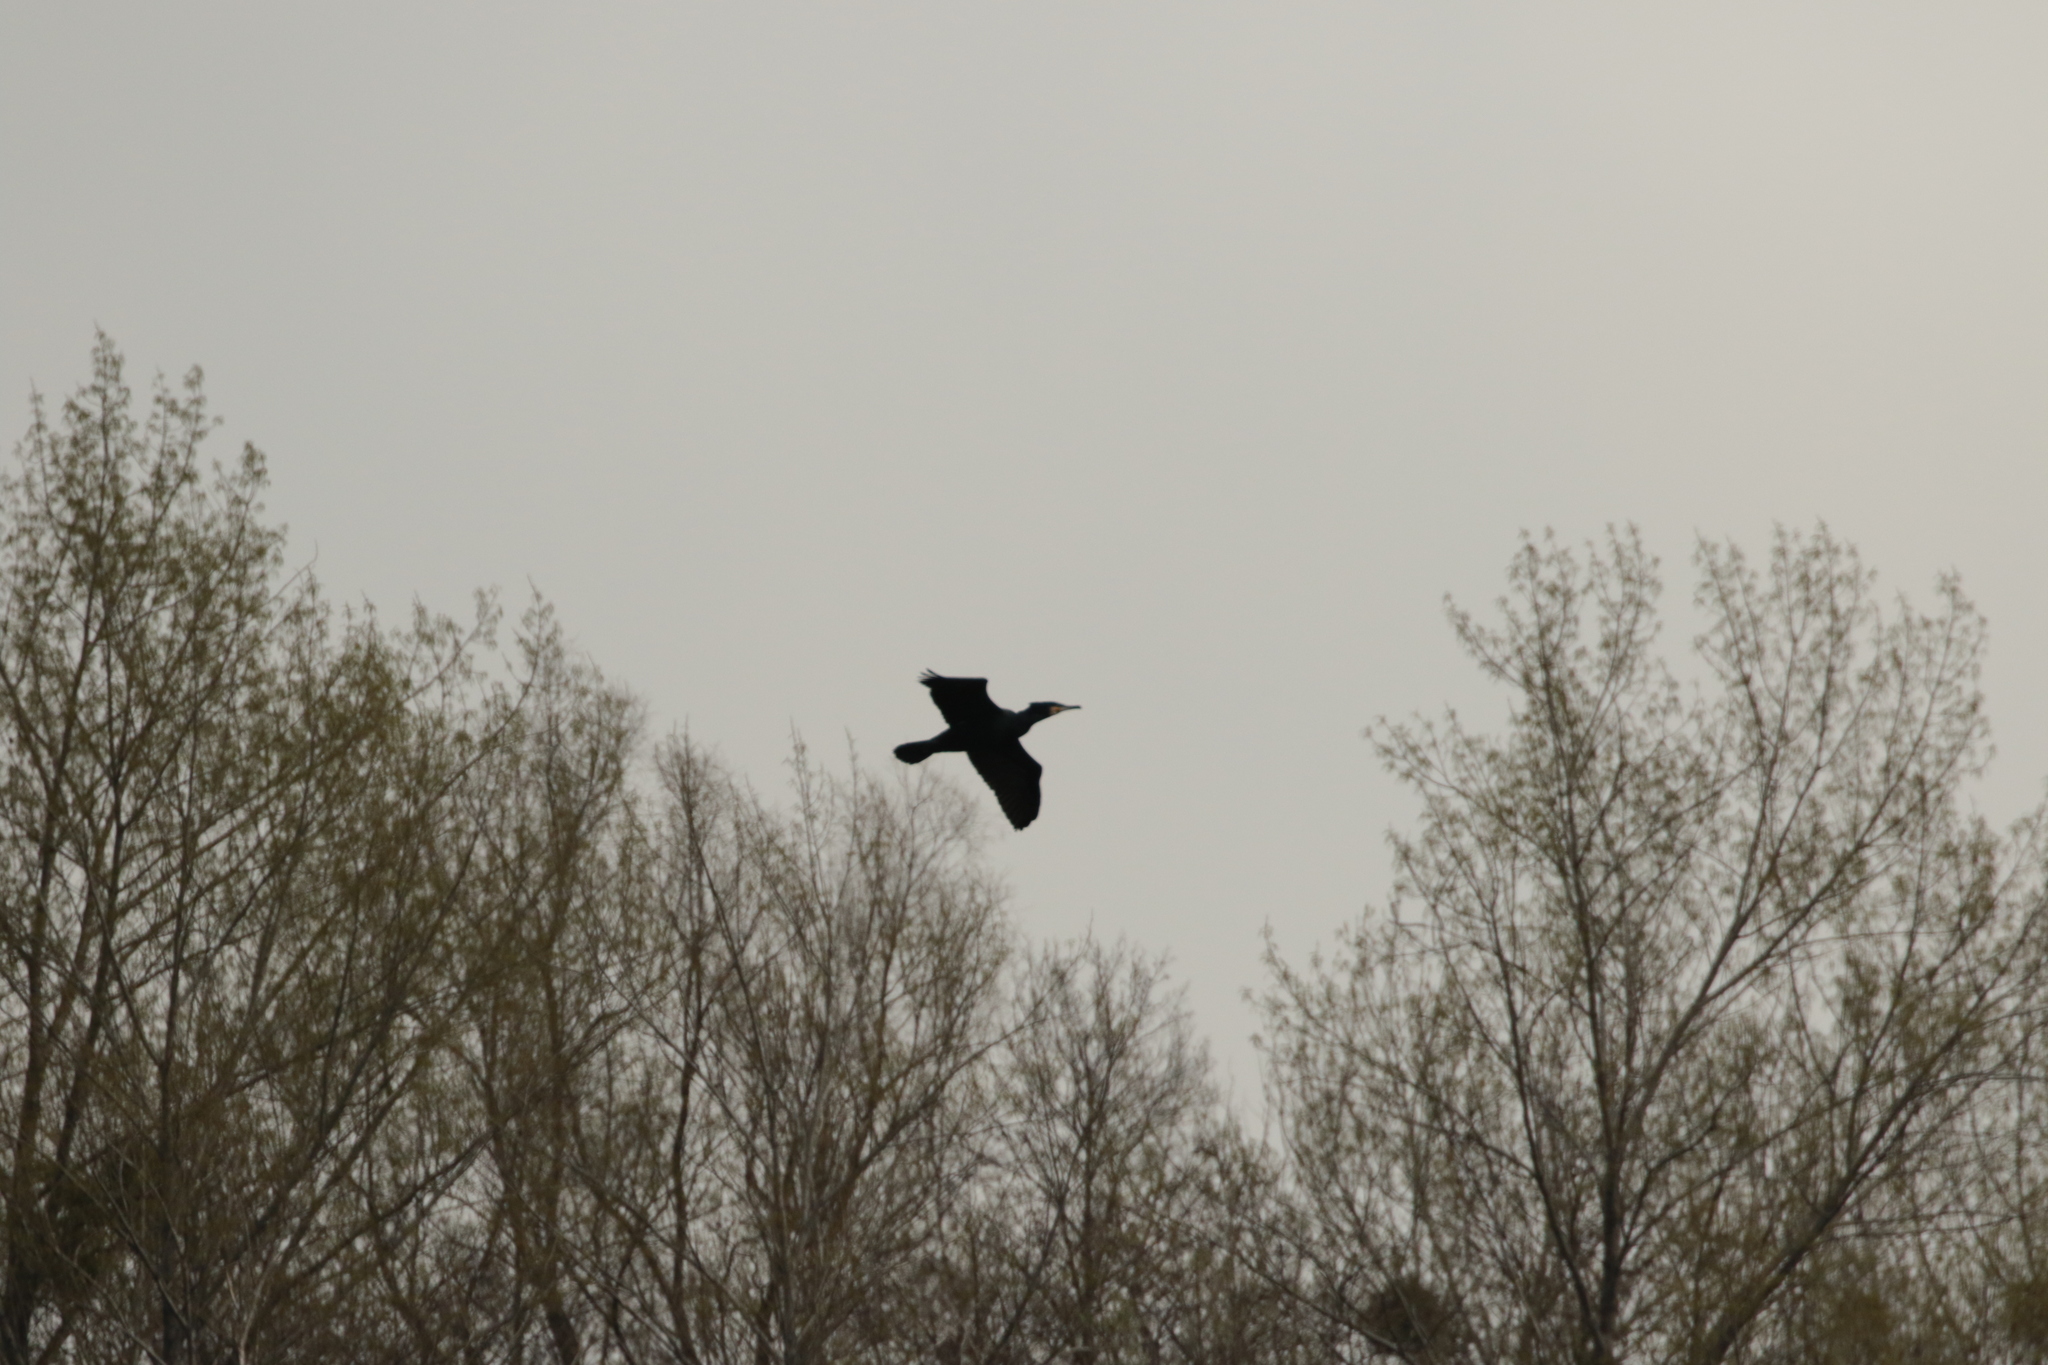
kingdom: Animalia
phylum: Chordata
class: Aves
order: Suliformes
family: Phalacrocoracidae
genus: Phalacrocorax
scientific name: Phalacrocorax carbo
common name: Great cormorant
